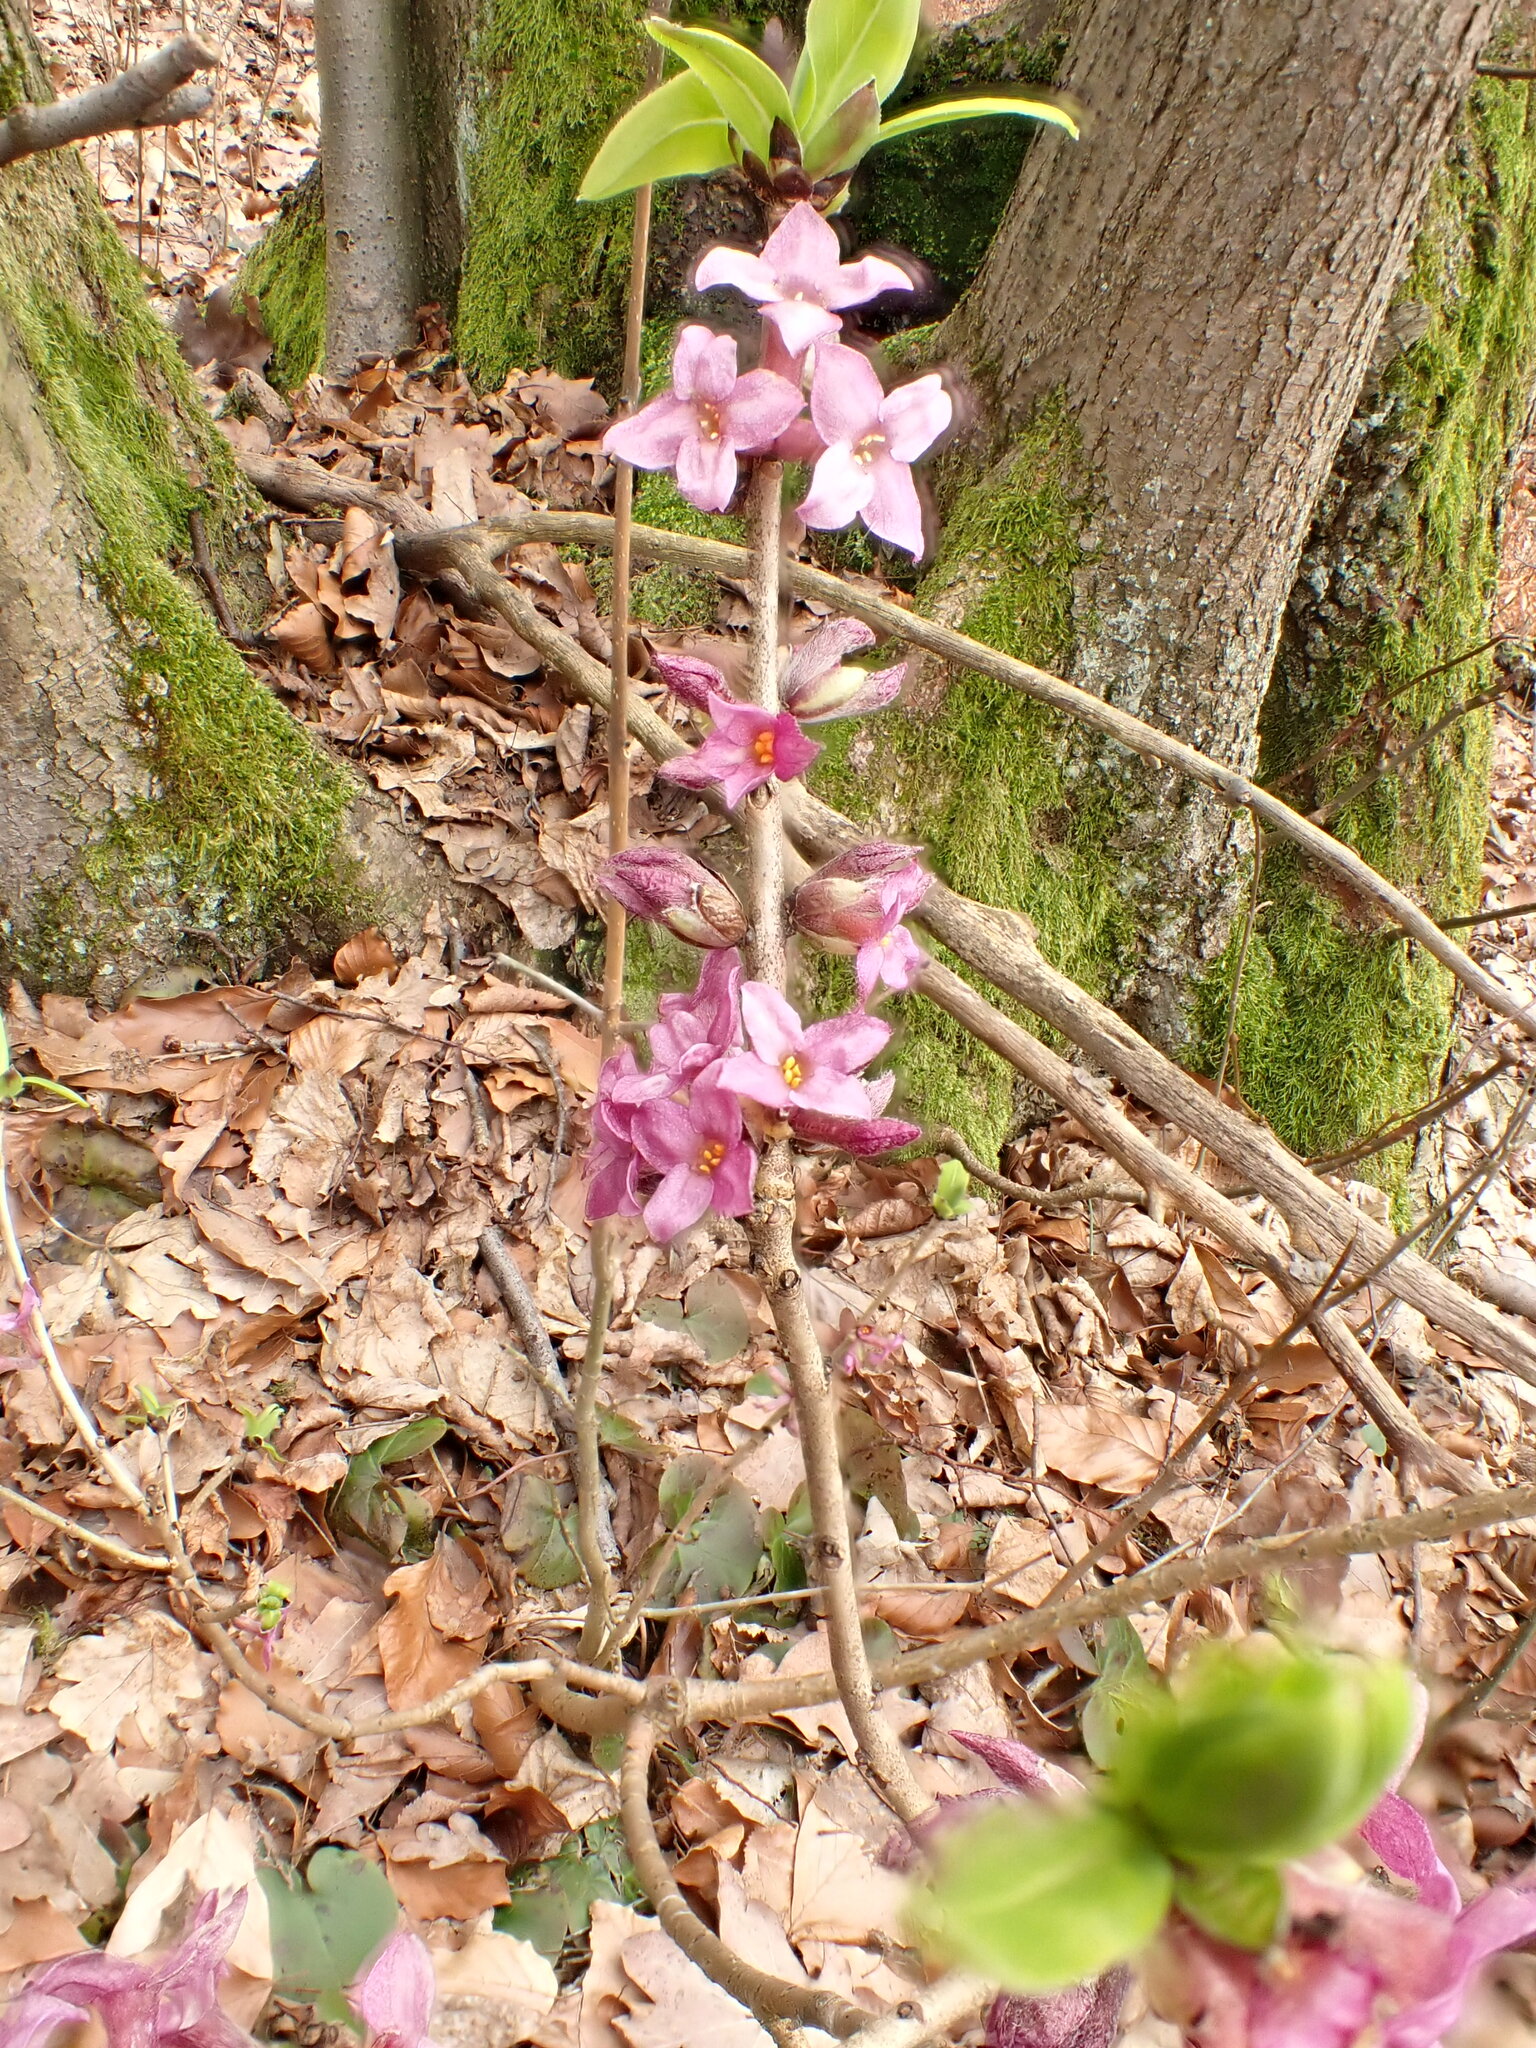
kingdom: Plantae
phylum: Tracheophyta
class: Magnoliopsida
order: Malvales
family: Thymelaeaceae
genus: Daphne
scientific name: Daphne mezereum
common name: Mezereon
